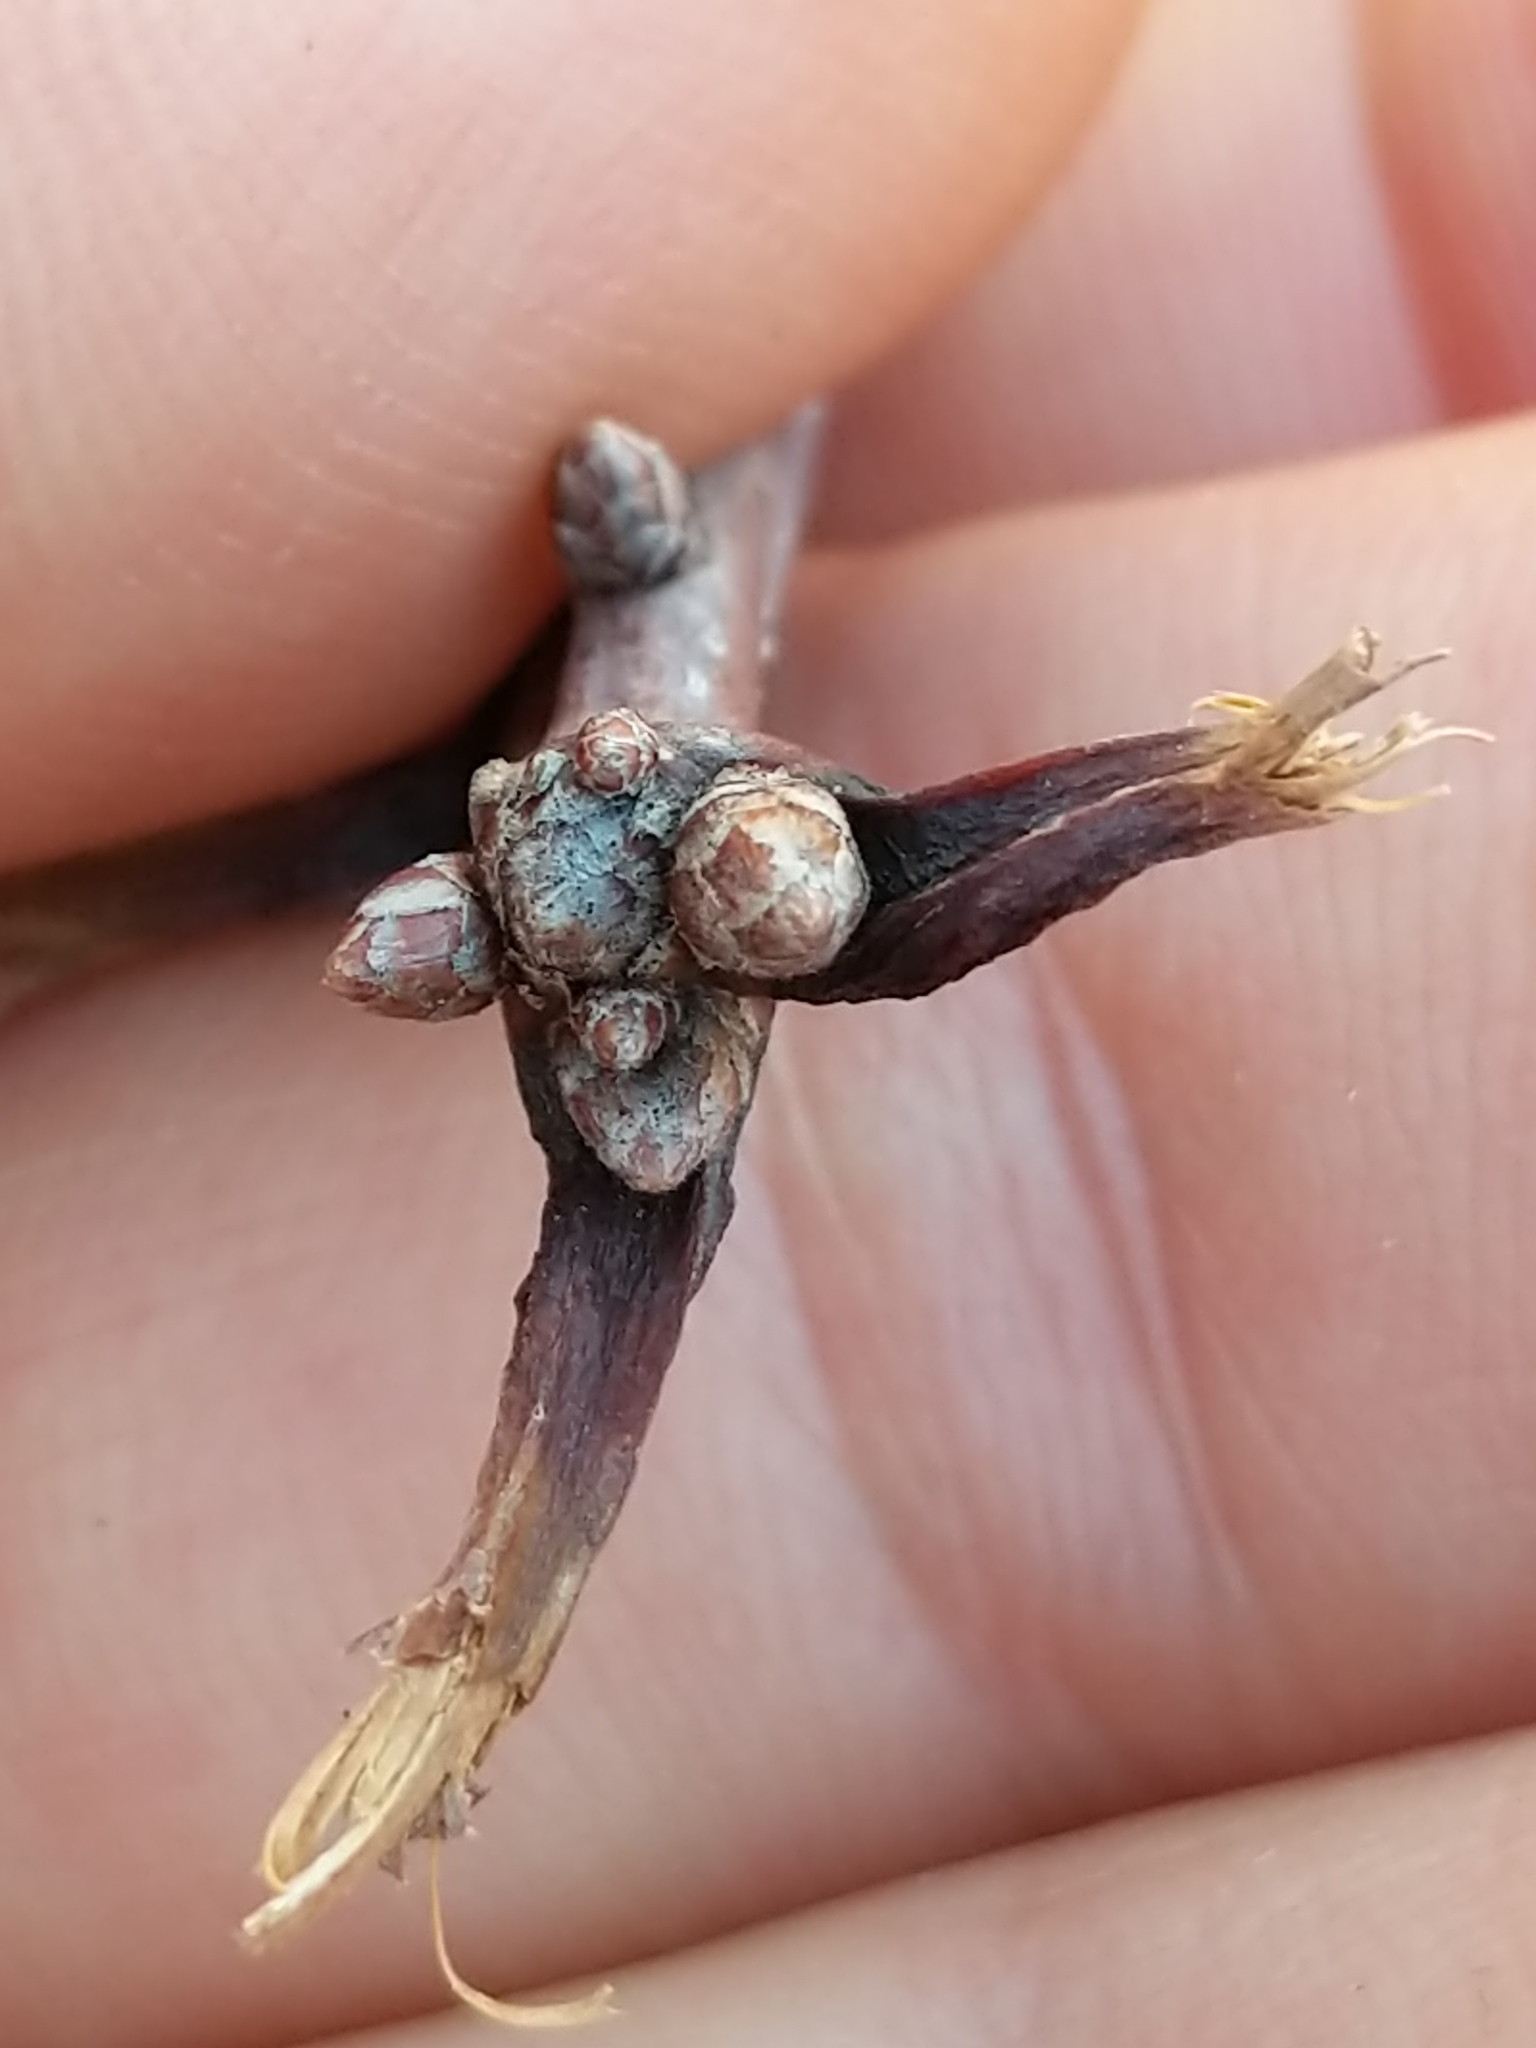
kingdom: Plantae
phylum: Tracheophyta
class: Magnoliopsida
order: Fagales
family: Fagaceae
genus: Quercus
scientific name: Quercus alba
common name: White oak
